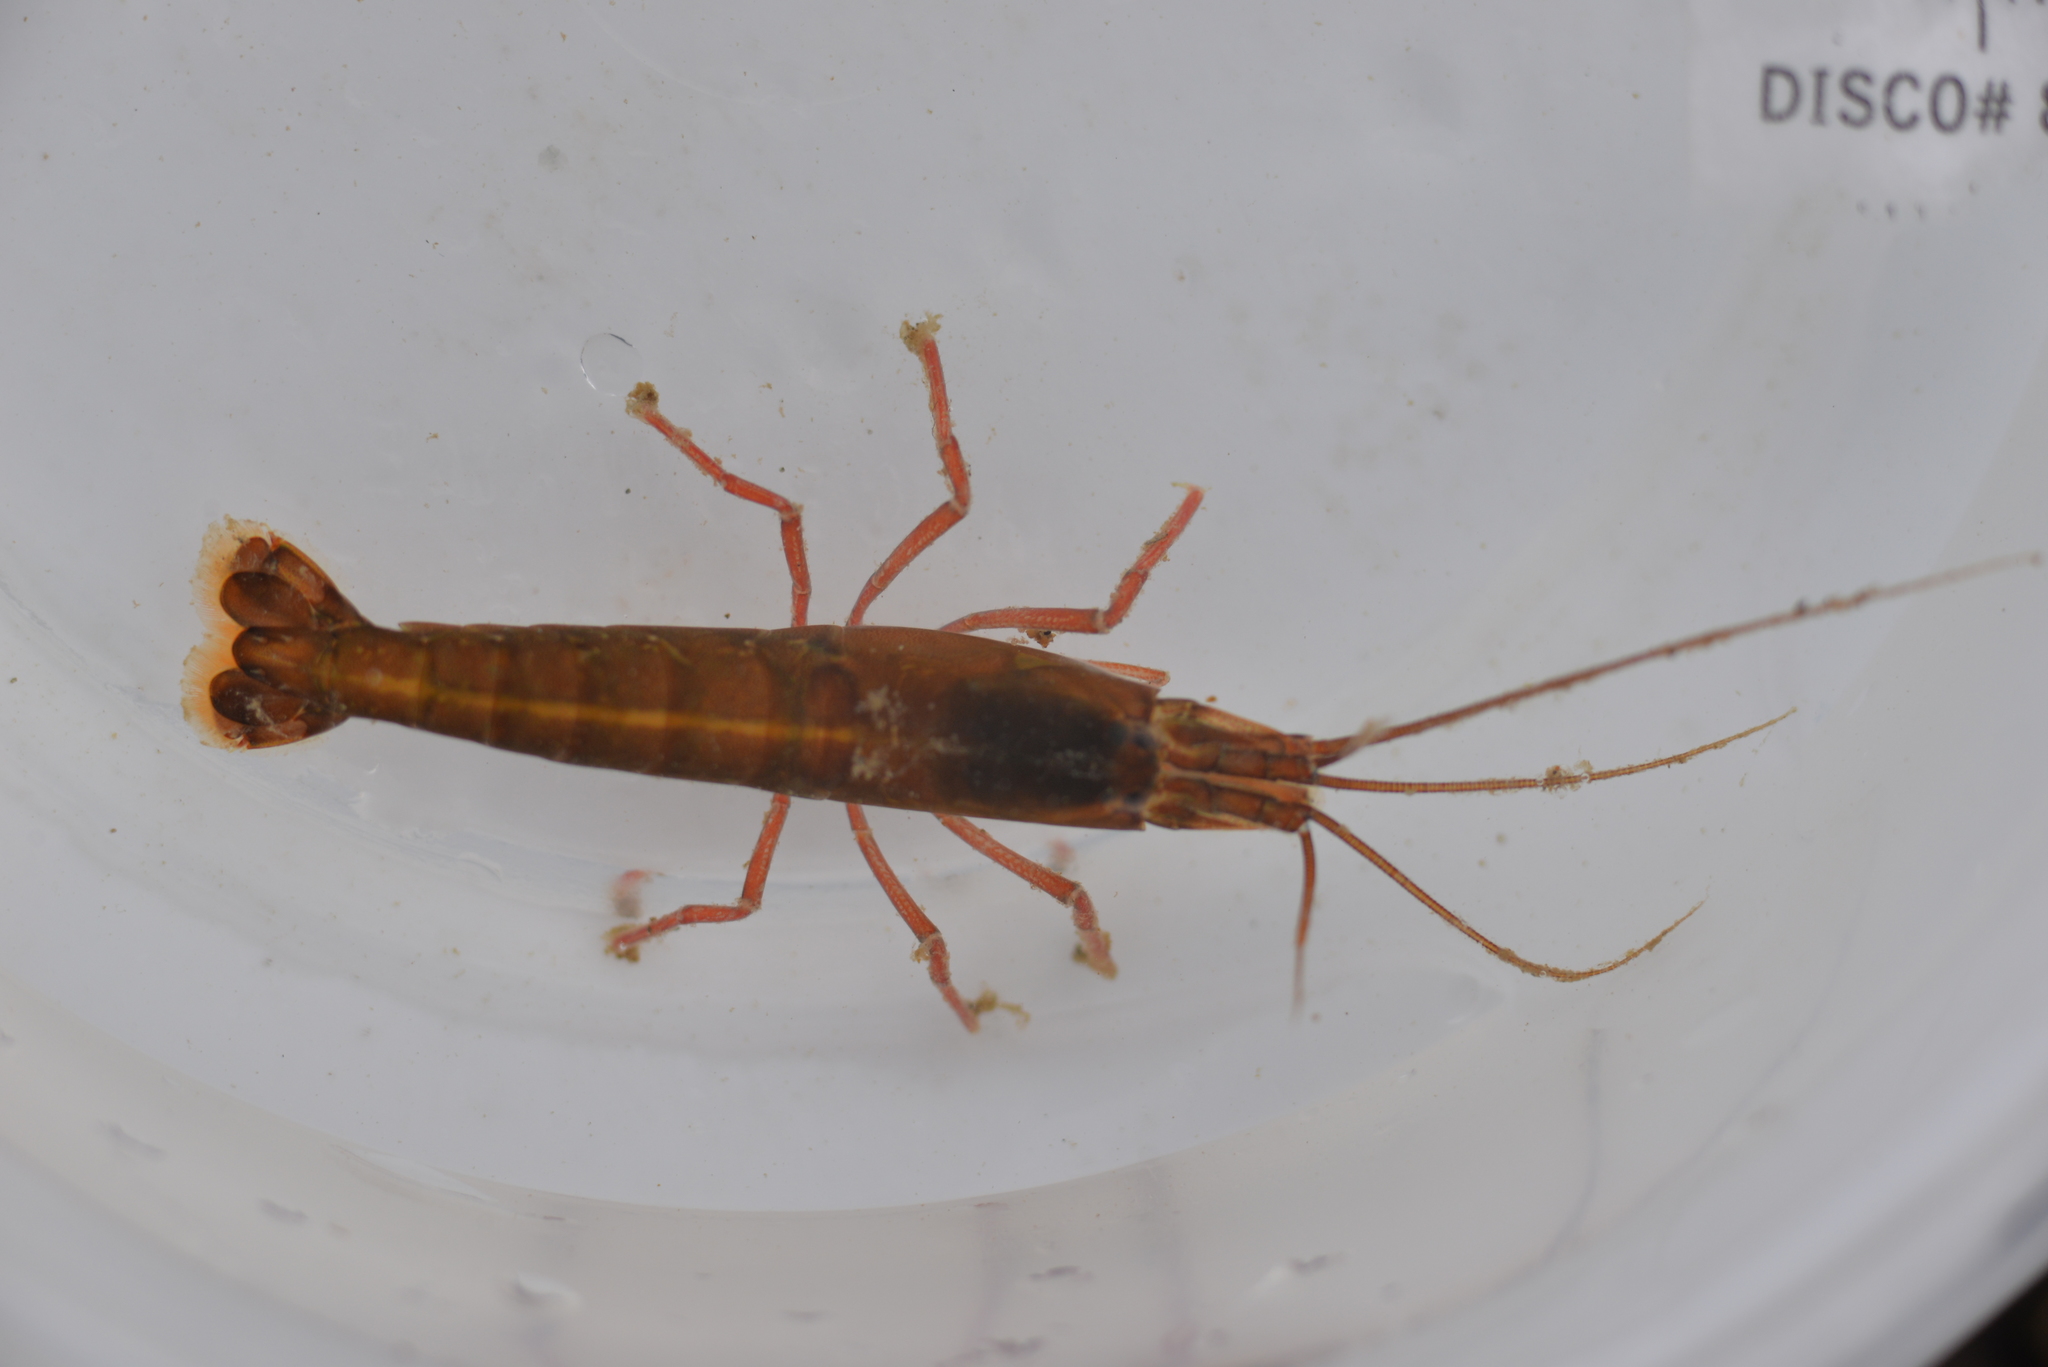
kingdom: Animalia
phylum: Arthropoda
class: Malacostraca
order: Decapoda
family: Alpheidae
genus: Betaeus
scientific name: Betaeus macginitieae
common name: Urchin visored shrimp
